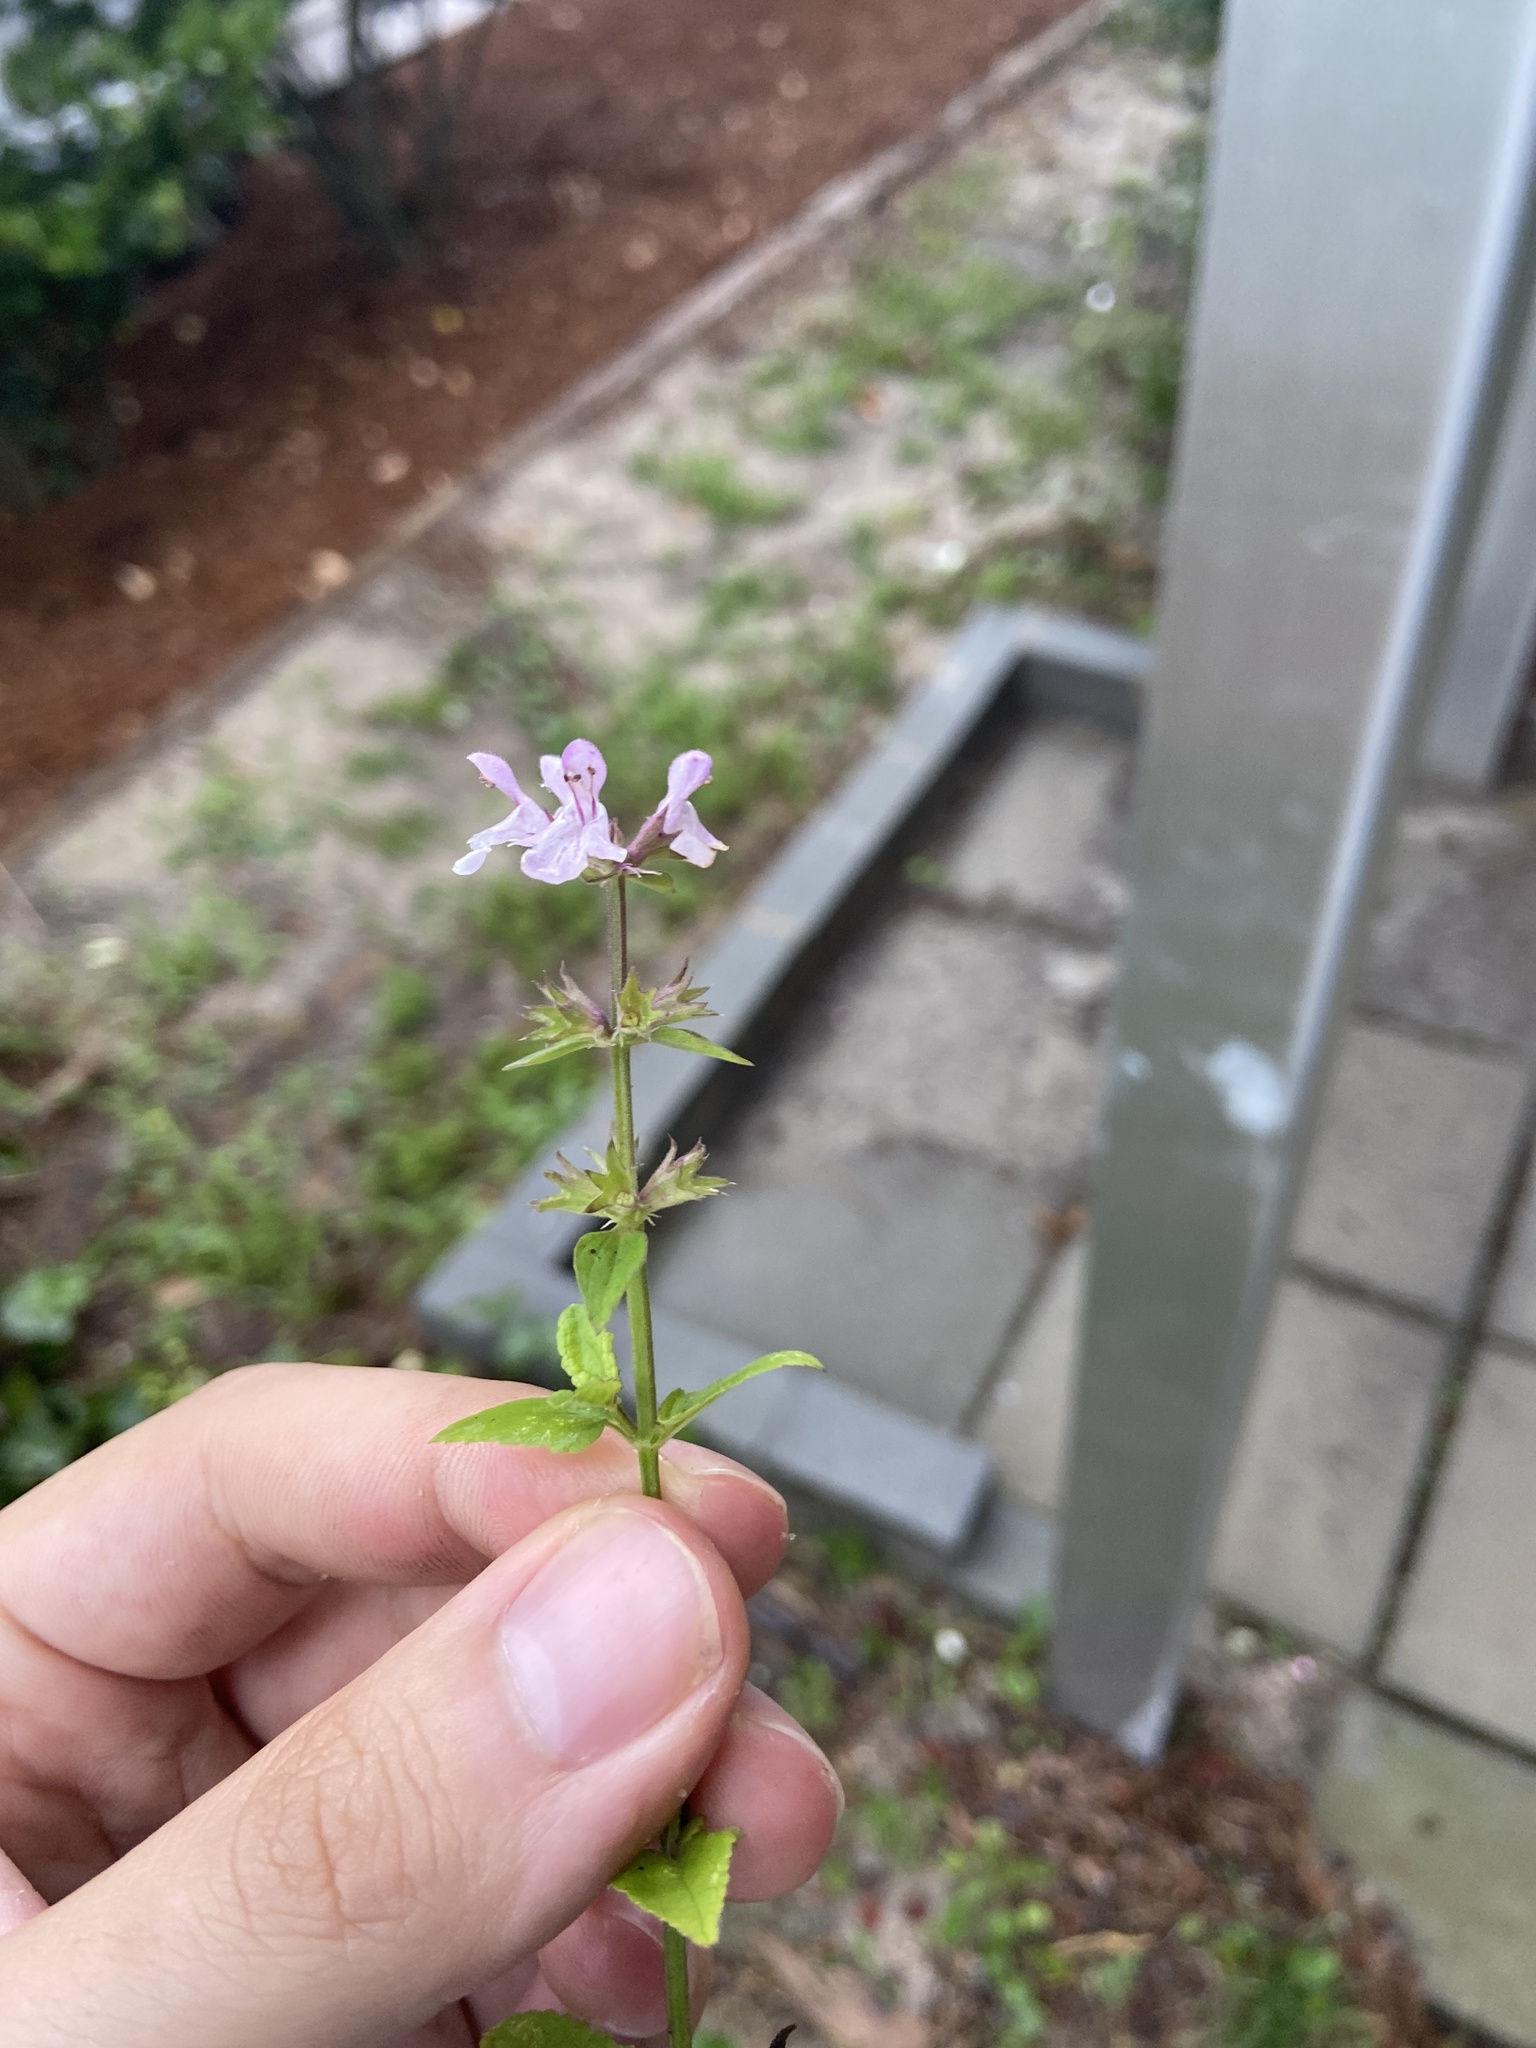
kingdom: Plantae
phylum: Tracheophyta
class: Magnoliopsida
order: Lamiales
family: Lamiaceae
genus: Stachys
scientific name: Stachys floridana
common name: Florida betony
